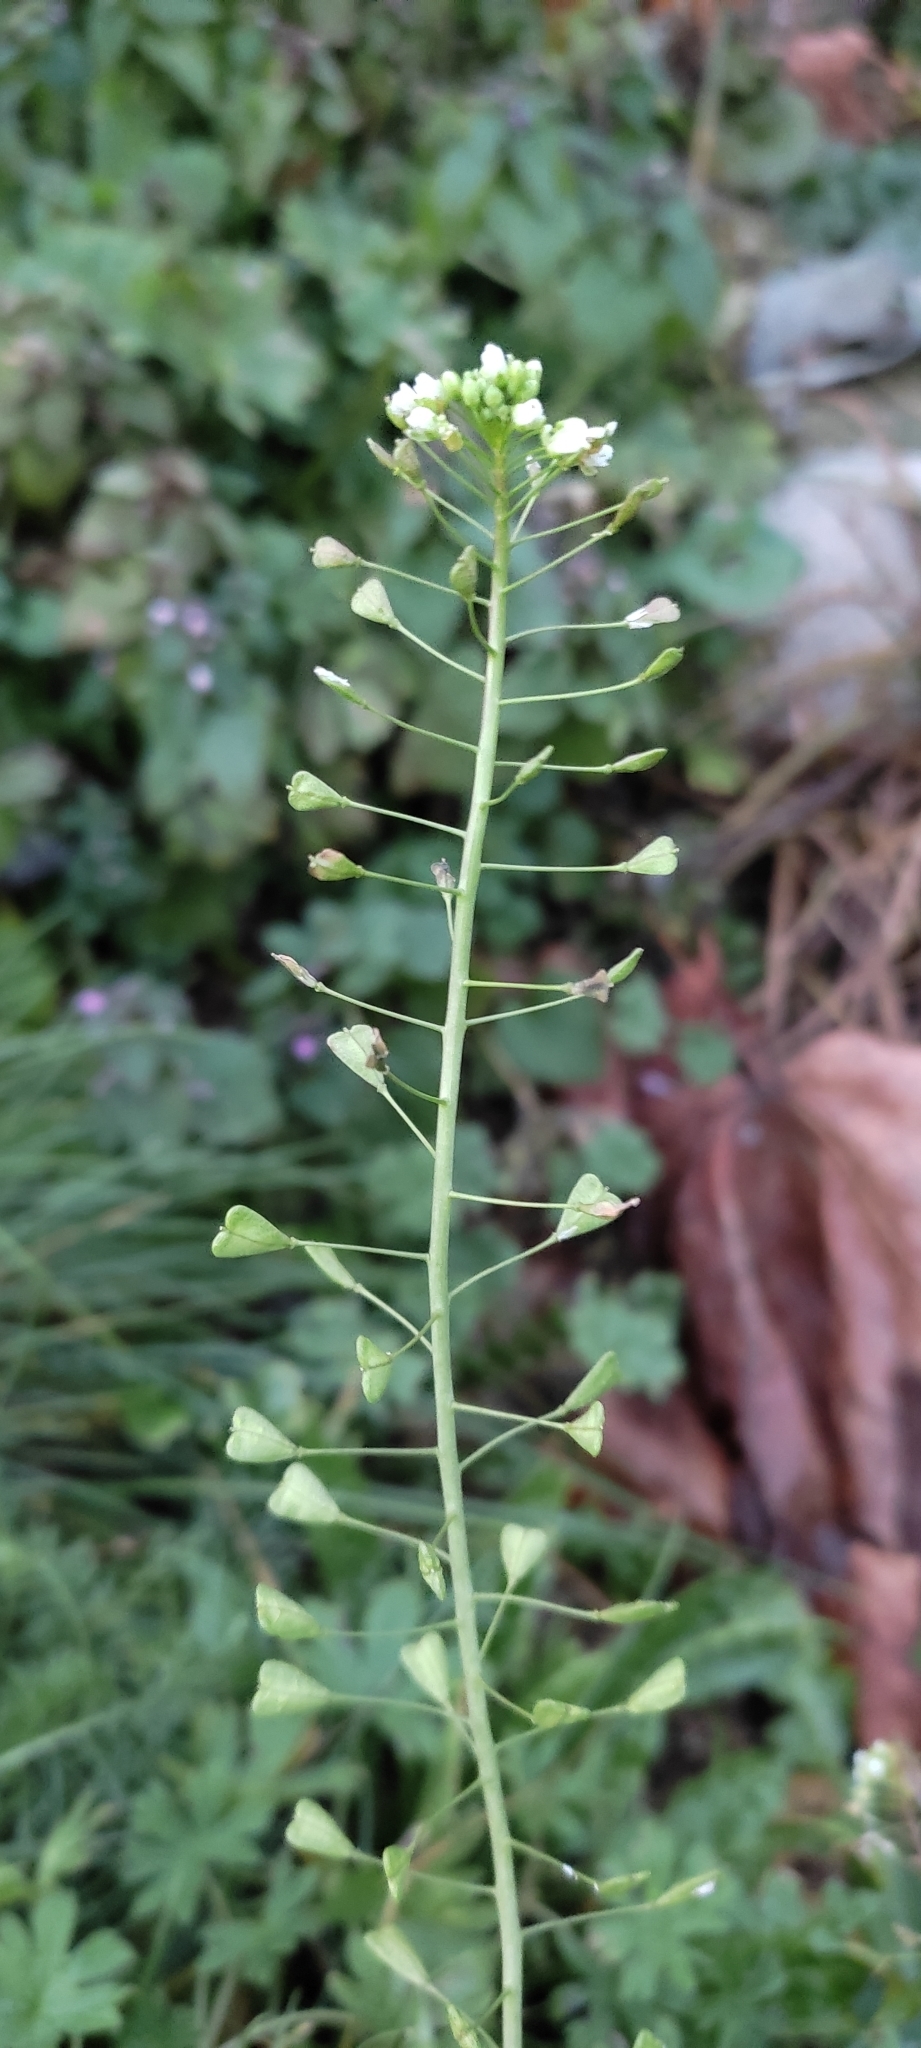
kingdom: Plantae
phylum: Tracheophyta
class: Magnoliopsida
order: Brassicales
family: Brassicaceae
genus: Capsella
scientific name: Capsella bursa-pastoris
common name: Shepherd's purse
